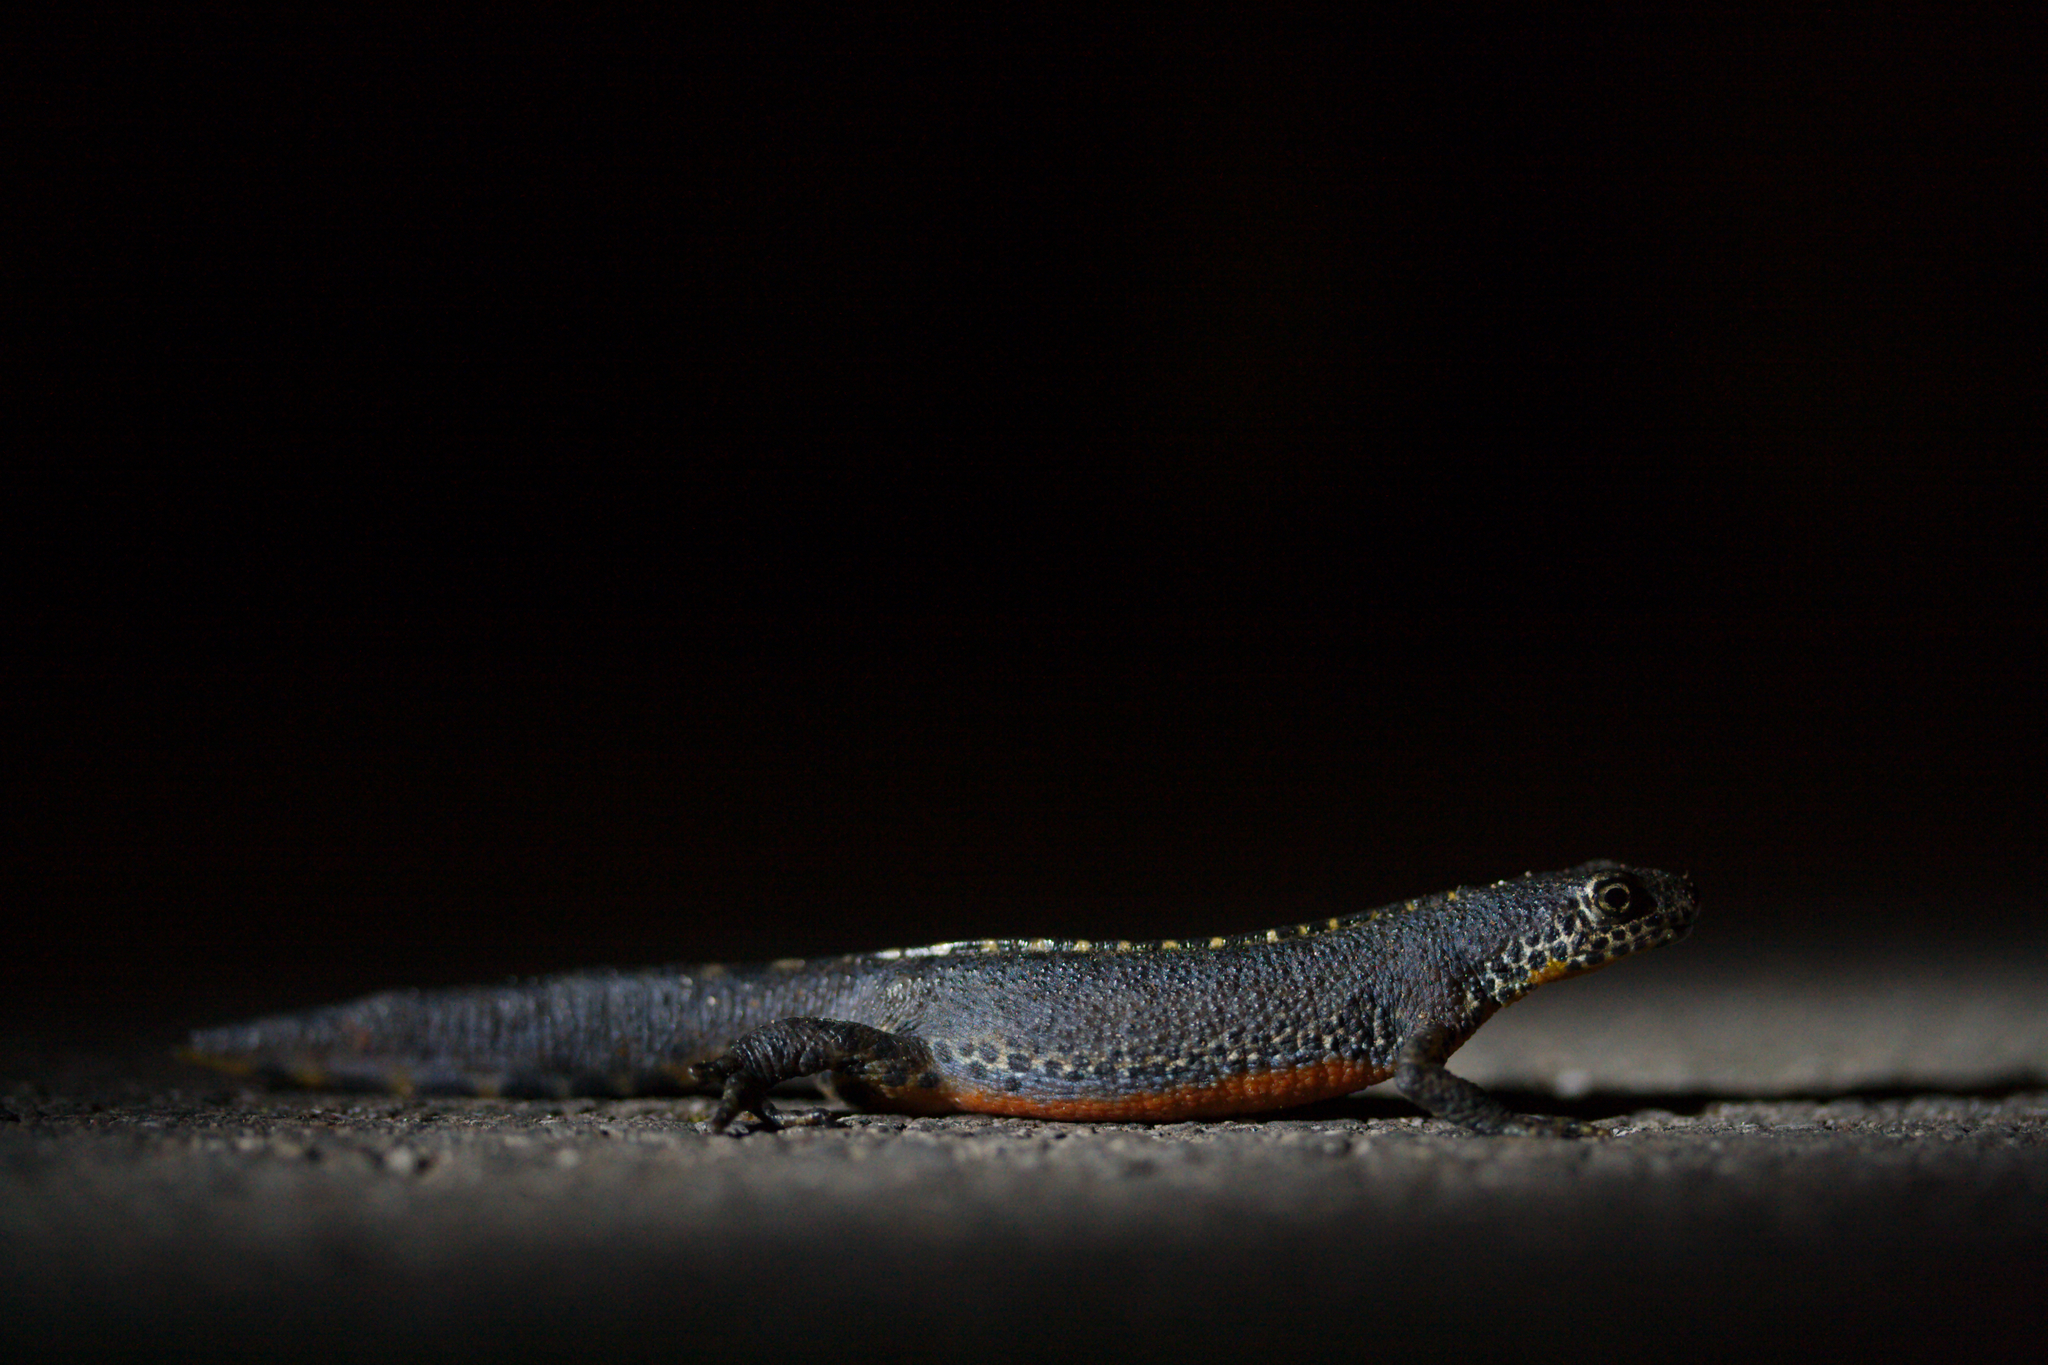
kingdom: Animalia
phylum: Chordata
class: Amphibia
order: Caudata
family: Salamandridae
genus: Ichthyosaura
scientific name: Ichthyosaura alpestris
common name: Alpine newt
